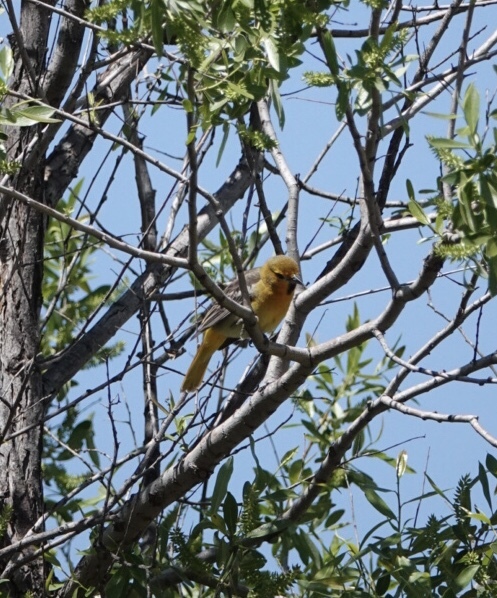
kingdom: Animalia
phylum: Chordata
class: Aves
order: Passeriformes
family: Icteridae
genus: Icterus
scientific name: Icterus bullockii
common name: Bullock's oriole
